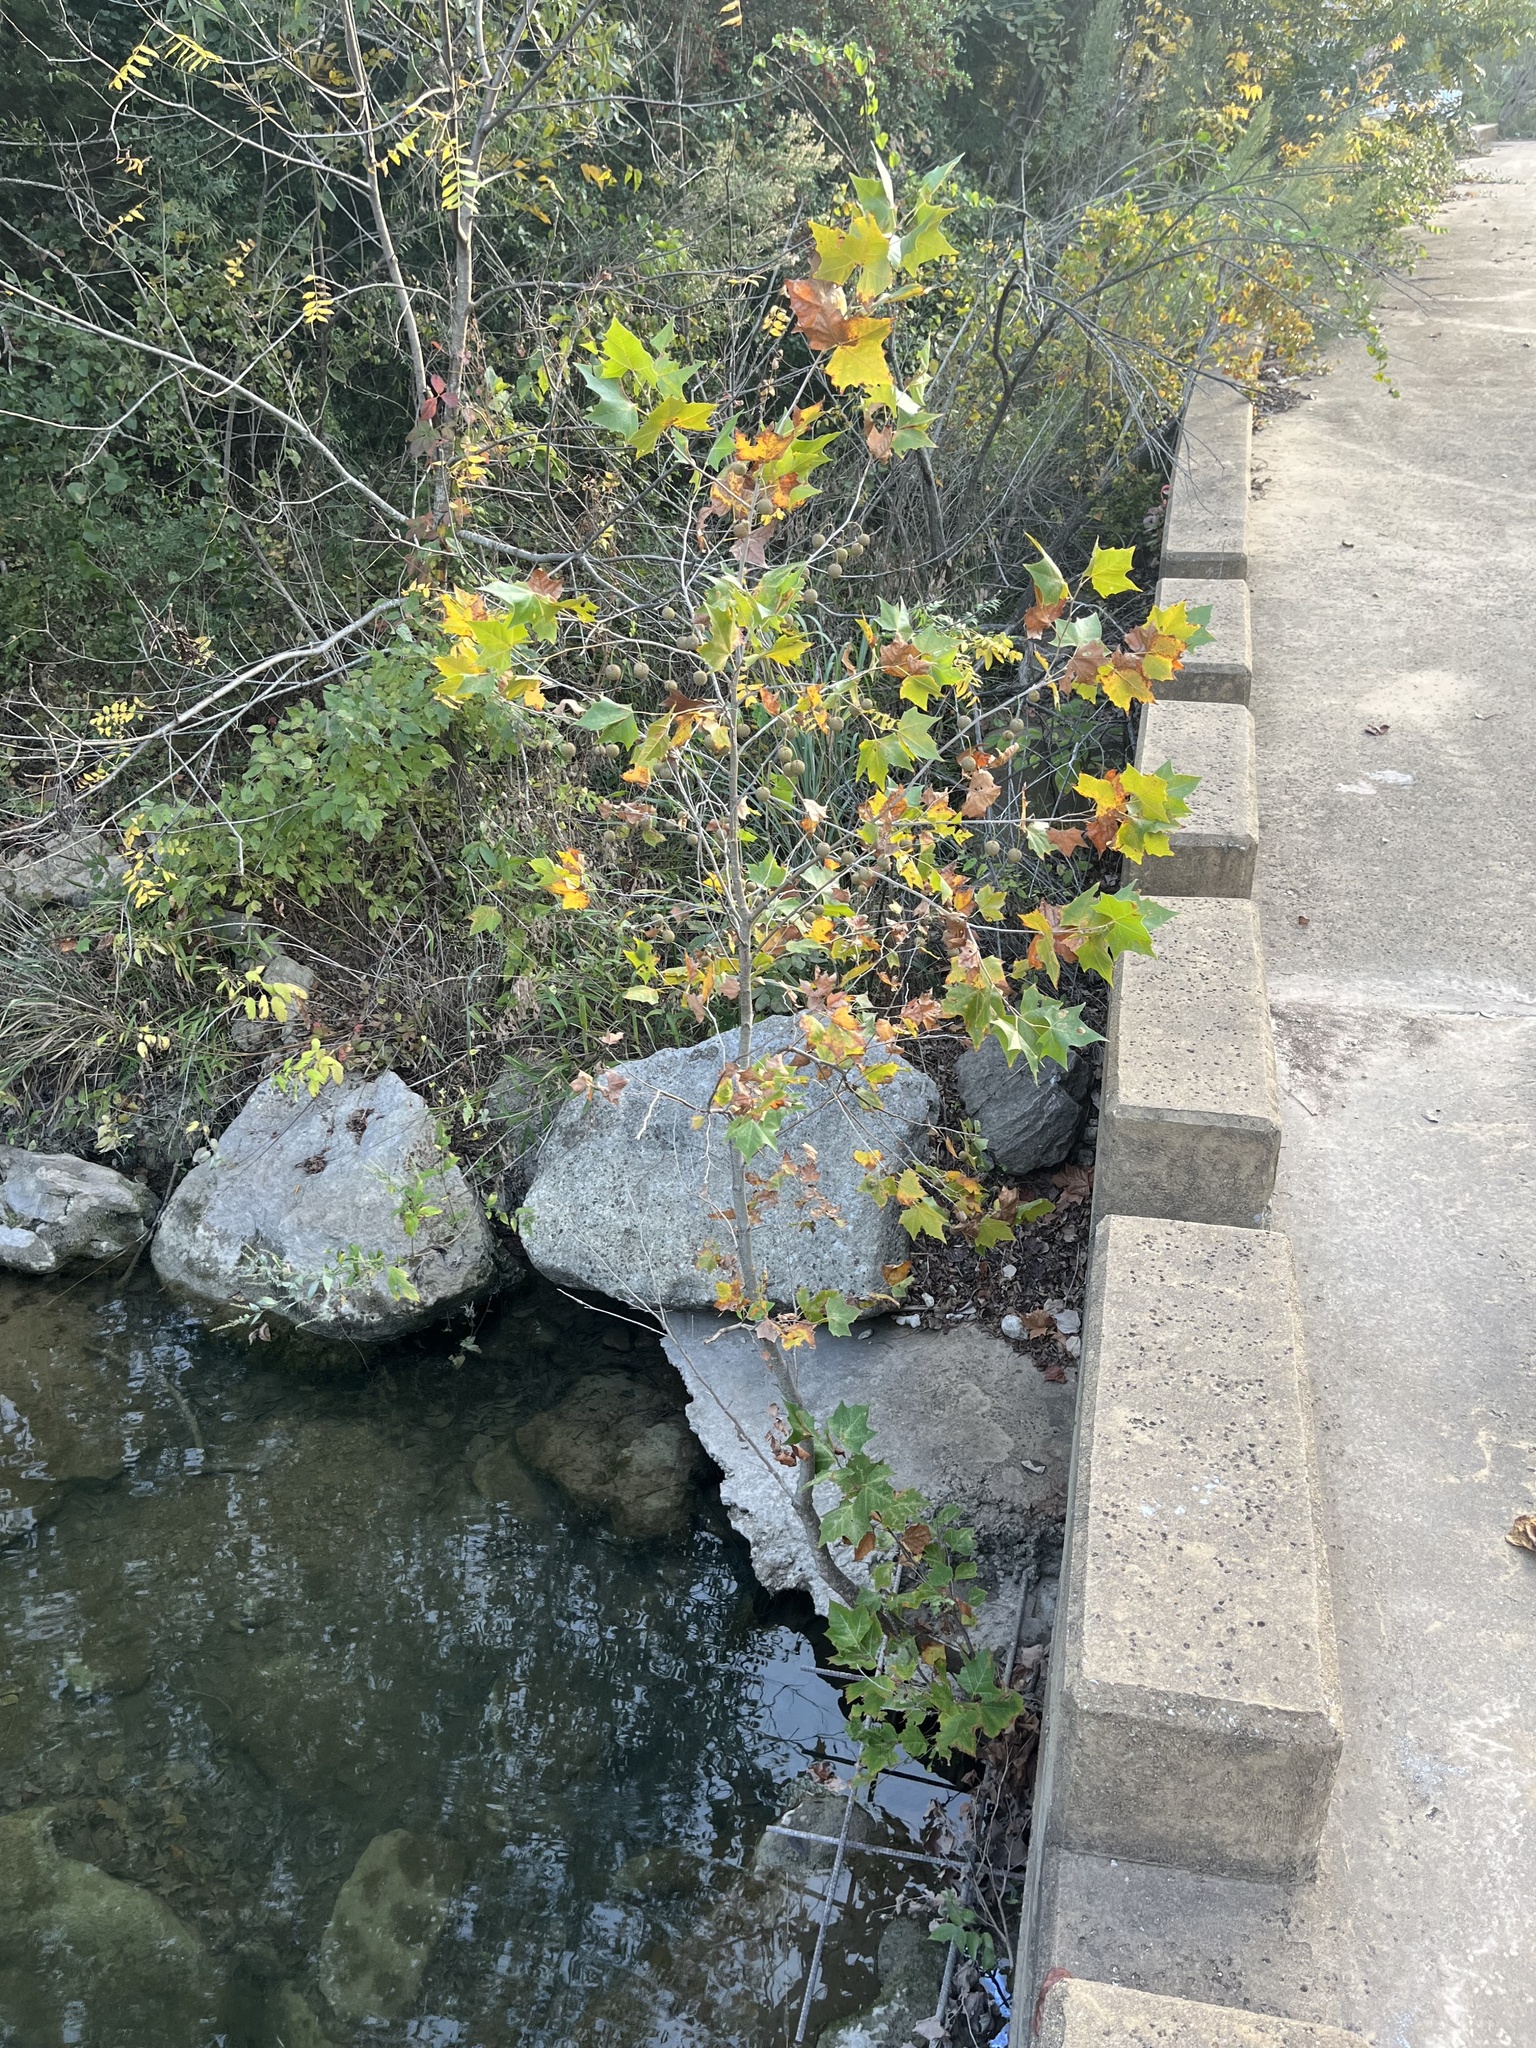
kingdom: Plantae
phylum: Tracheophyta
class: Magnoliopsida
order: Proteales
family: Platanaceae
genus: Platanus
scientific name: Platanus occidentalis
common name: American sycamore
